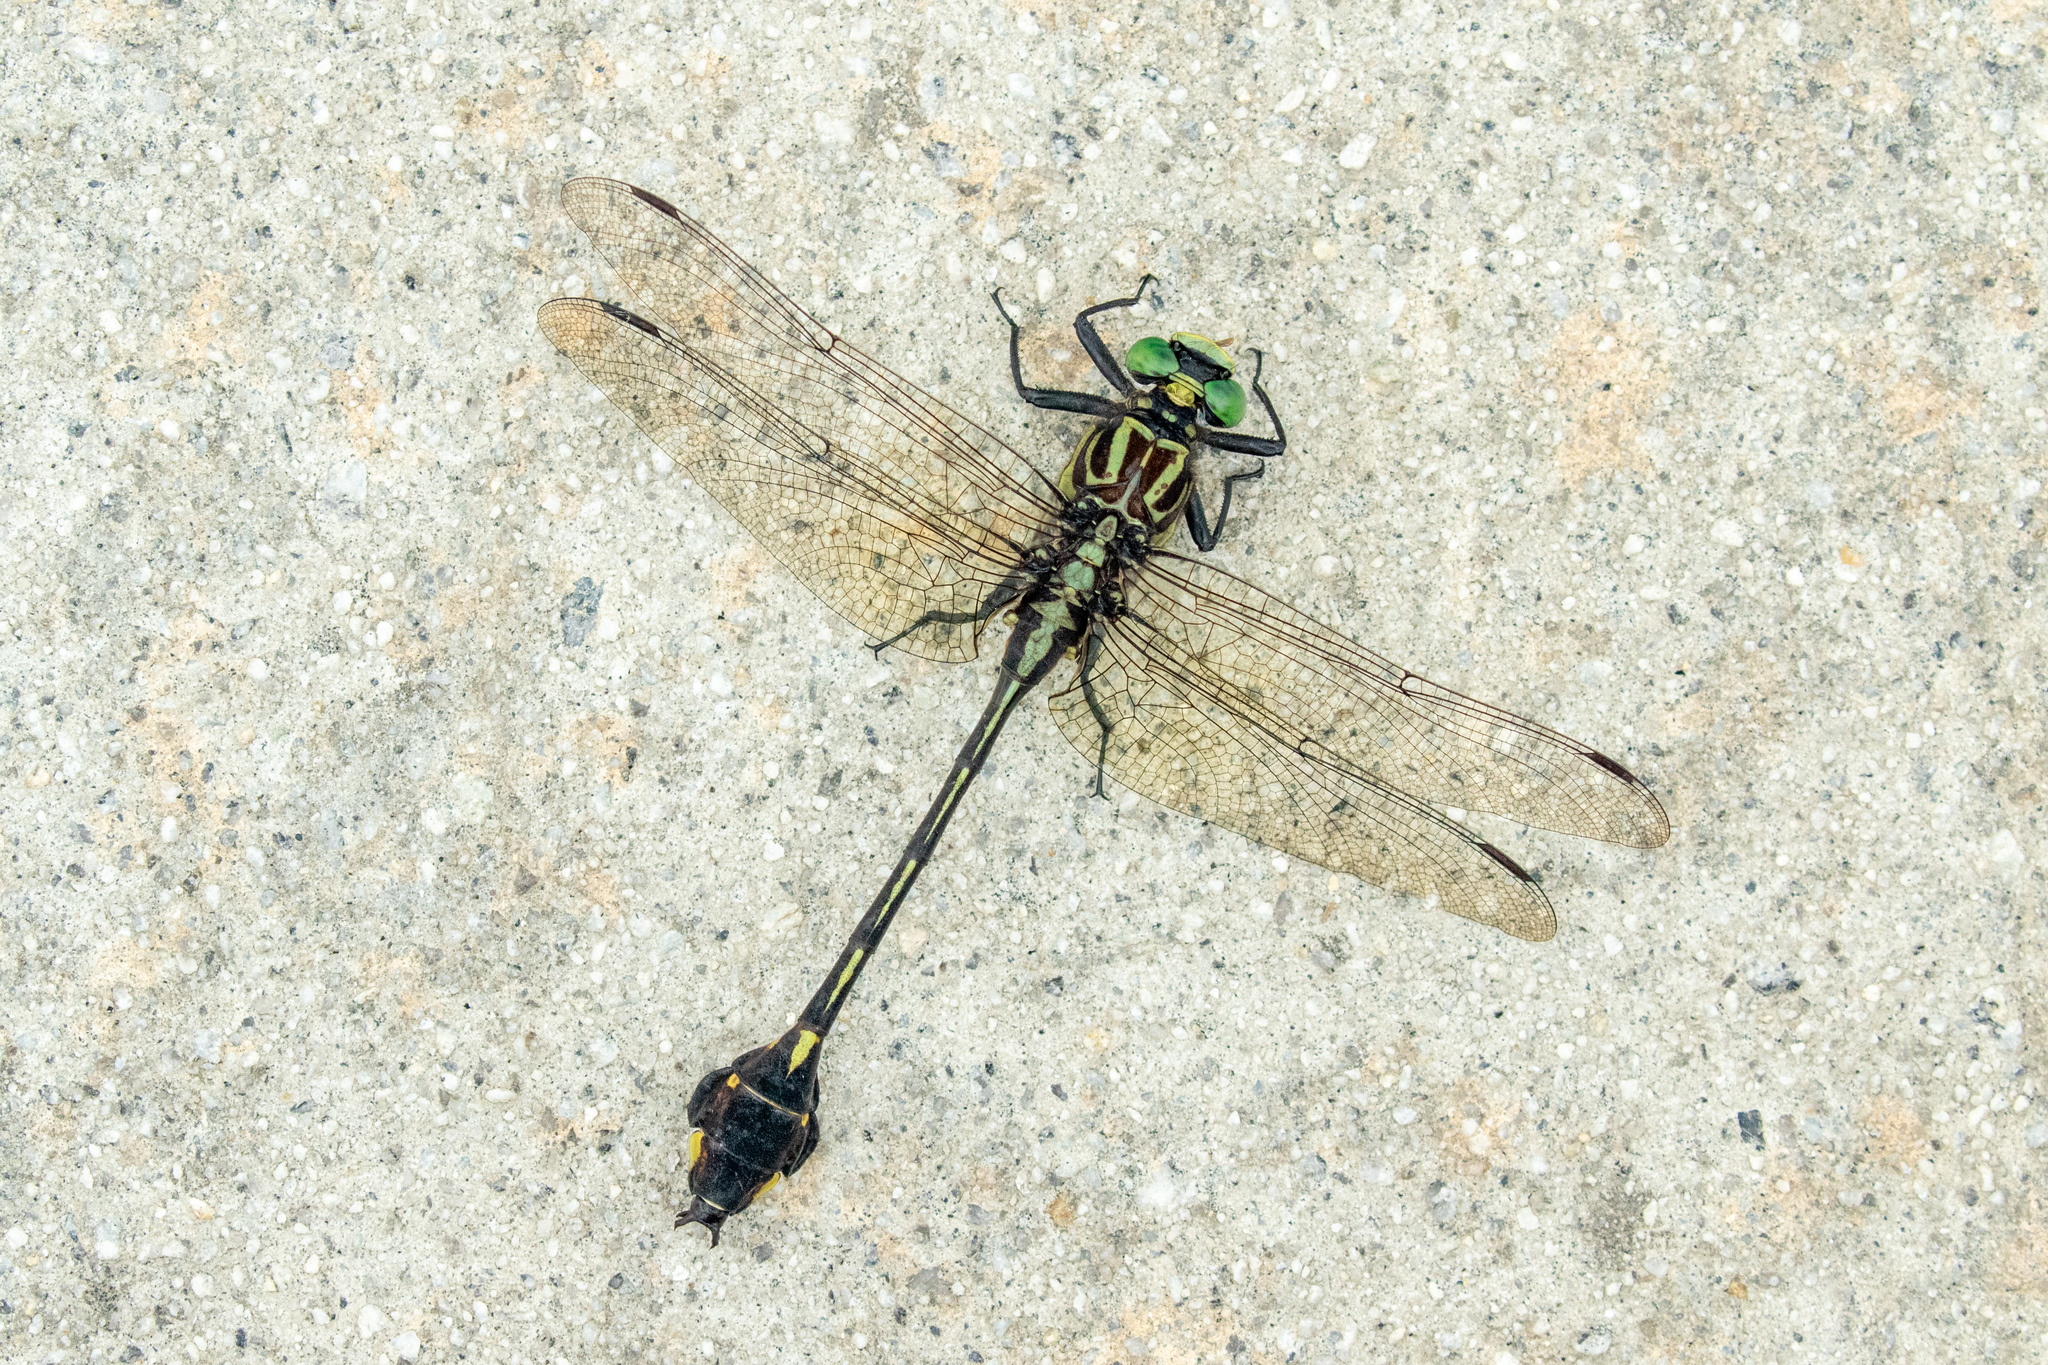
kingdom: Animalia
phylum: Arthropoda
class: Insecta
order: Odonata
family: Gomphidae
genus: Gomphurus
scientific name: Gomphurus dilatatus
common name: Blackwater clubtail
